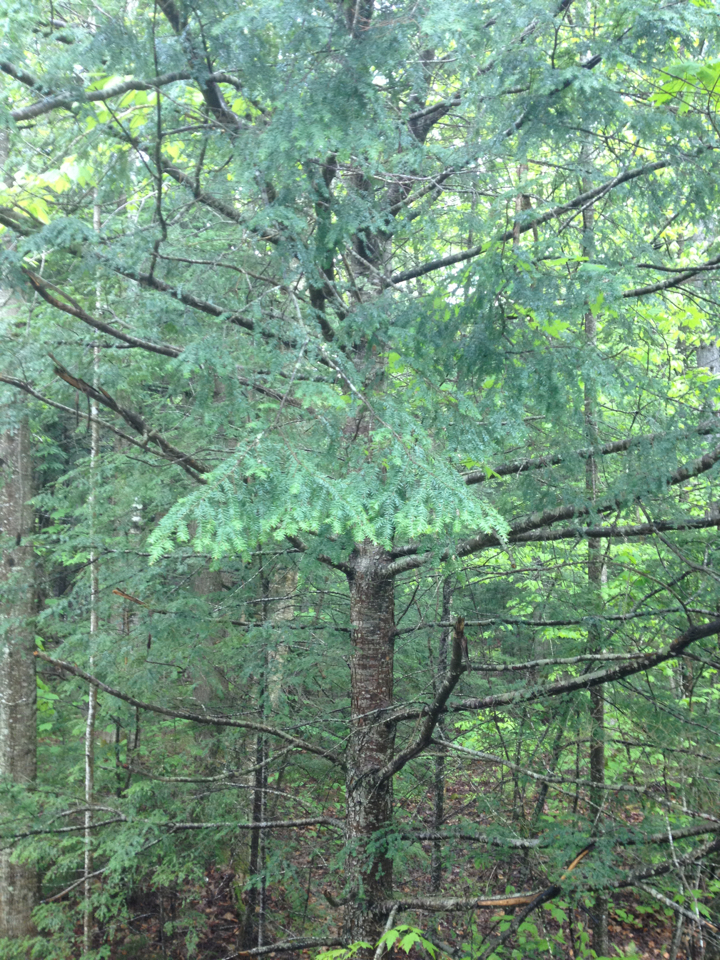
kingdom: Plantae
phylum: Tracheophyta
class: Pinopsida
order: Pinales
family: Pinaceae
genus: Tsuga
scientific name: Tsuga canadensis
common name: Eastern hemlock
